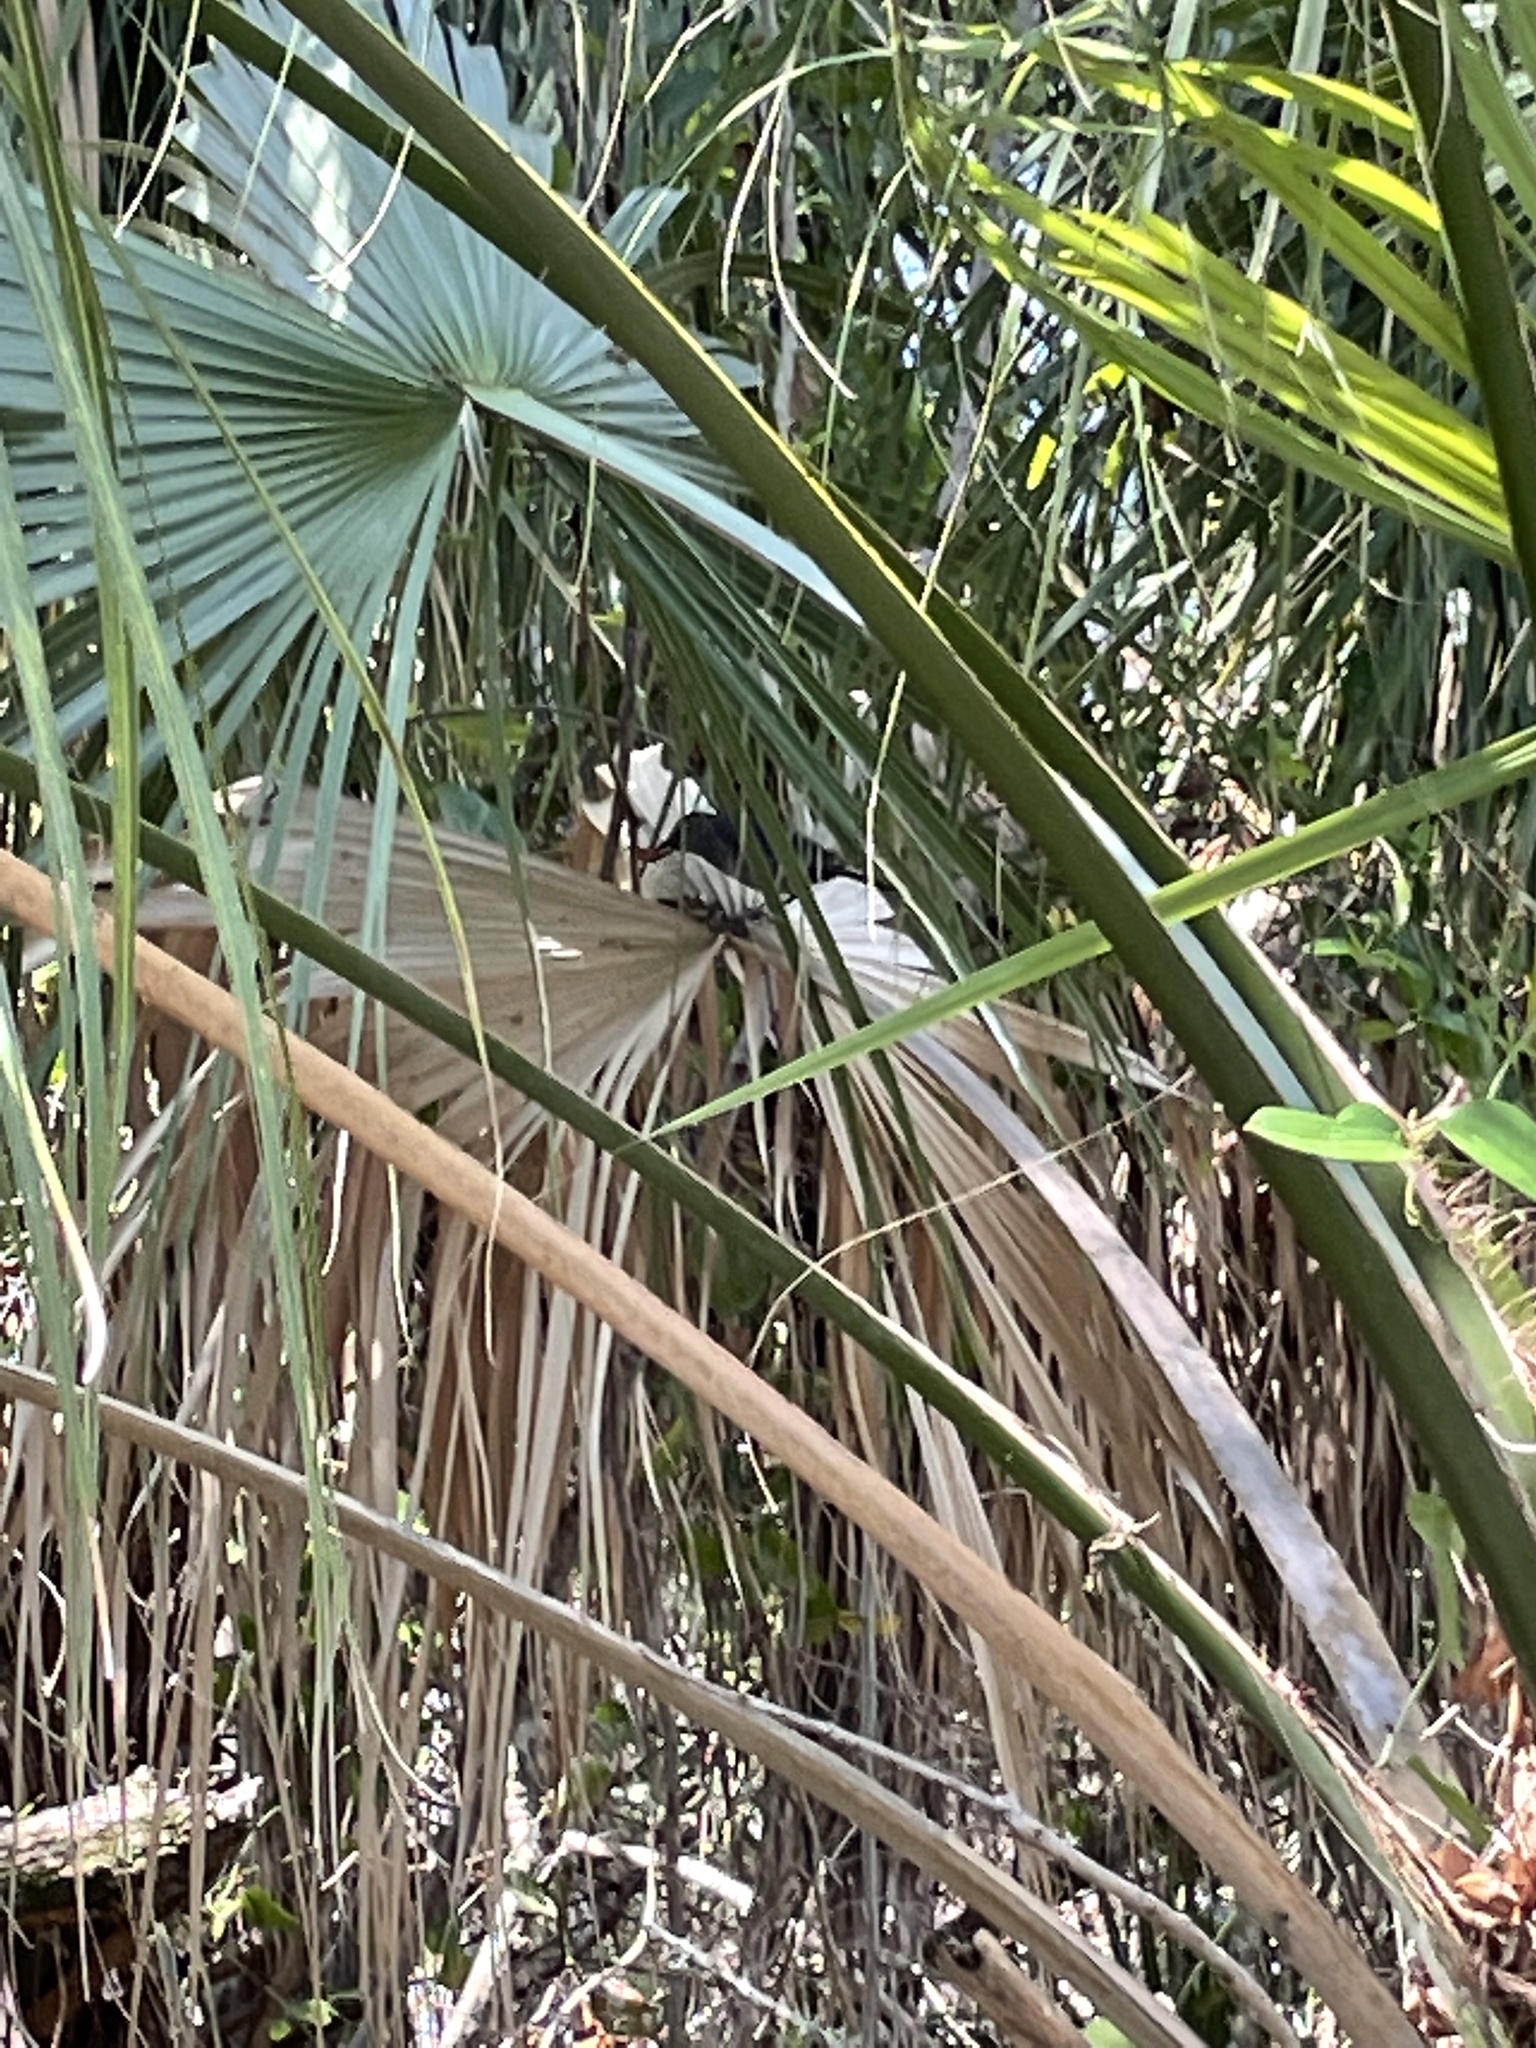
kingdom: Animalia
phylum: Chordata
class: Aves
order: Passeriformes
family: Mimidae
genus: Dumetella
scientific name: Dumetella carolinensis
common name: Gray catbird
